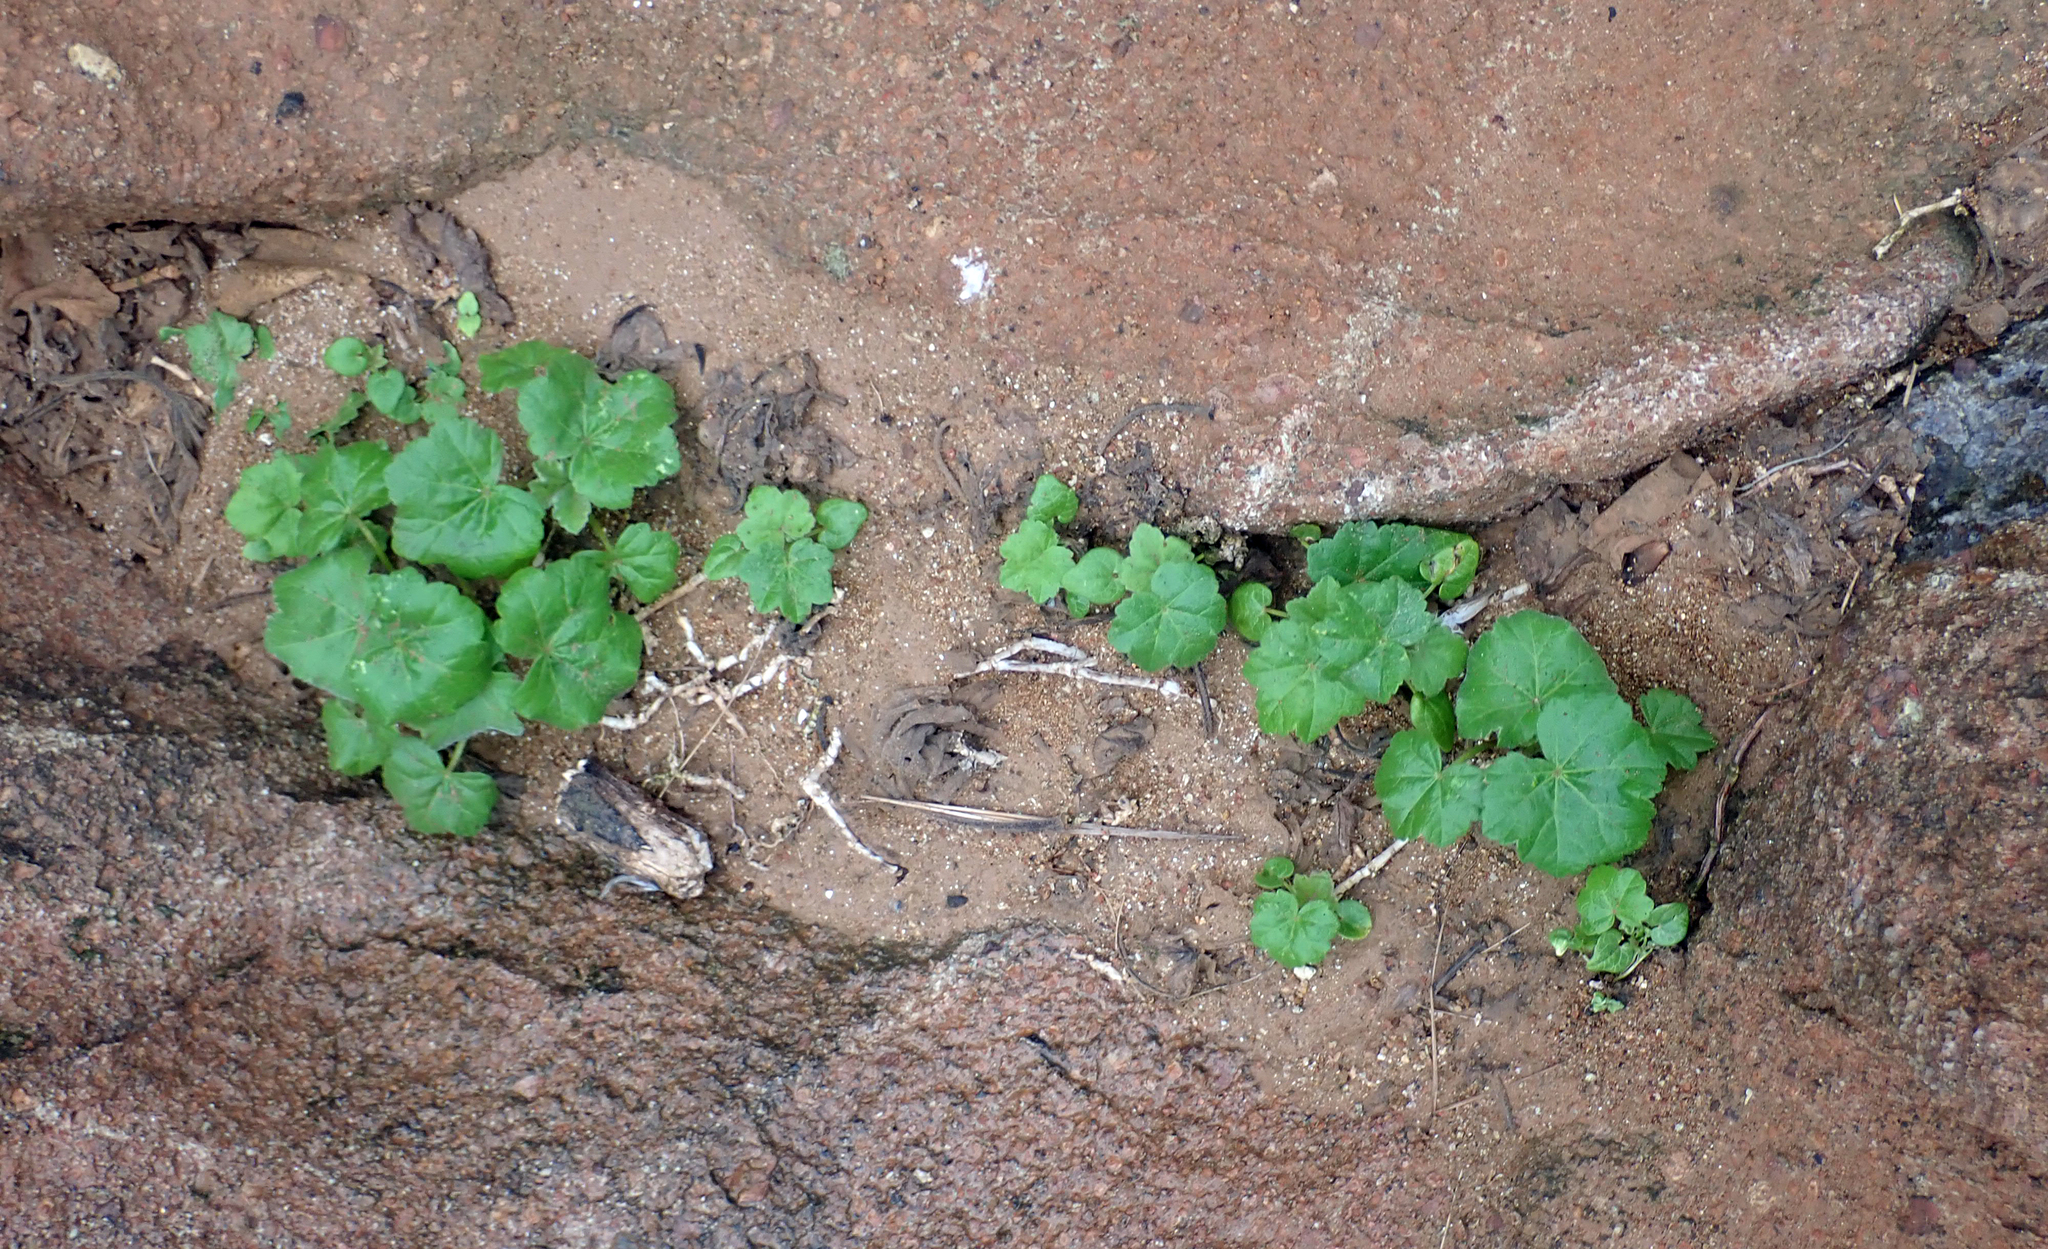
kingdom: Plantae
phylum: Tracheophyta
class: Magnoliopsida
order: Malvales
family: Malvaceae
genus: Malva
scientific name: Malva arborea
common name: Tree mallow
